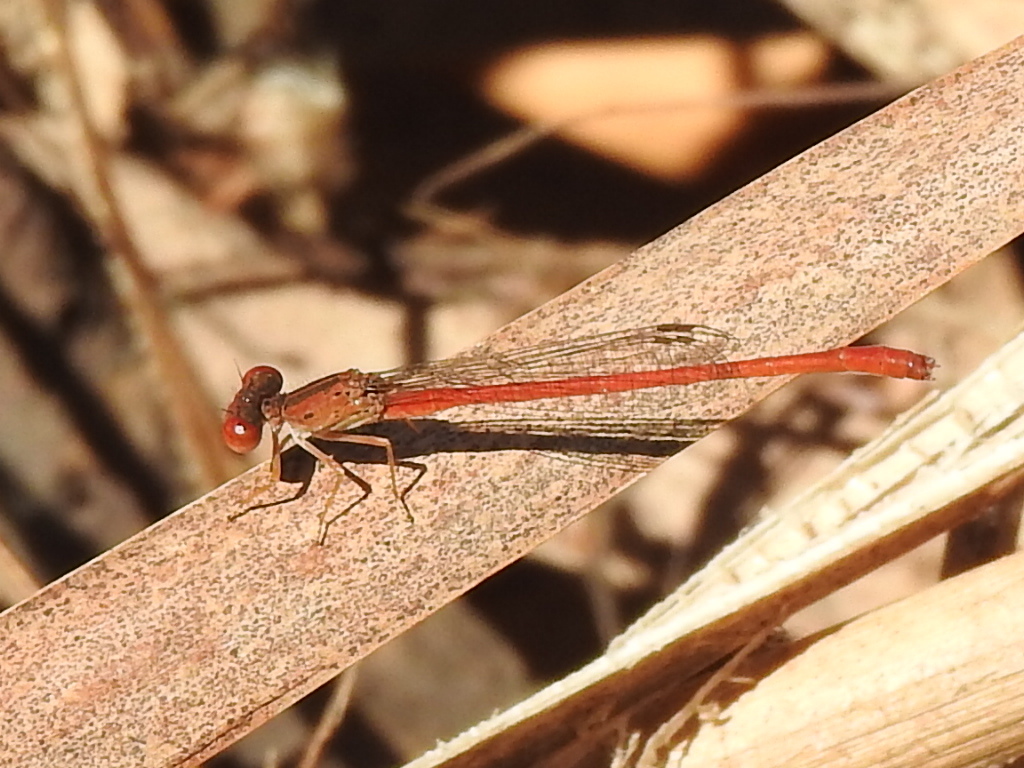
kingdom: Animalia
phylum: Arthropoda
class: Insecta
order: Odonata
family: Coenagrionidae
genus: Telebasis
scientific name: Telebasis salva
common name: Desert firetail
